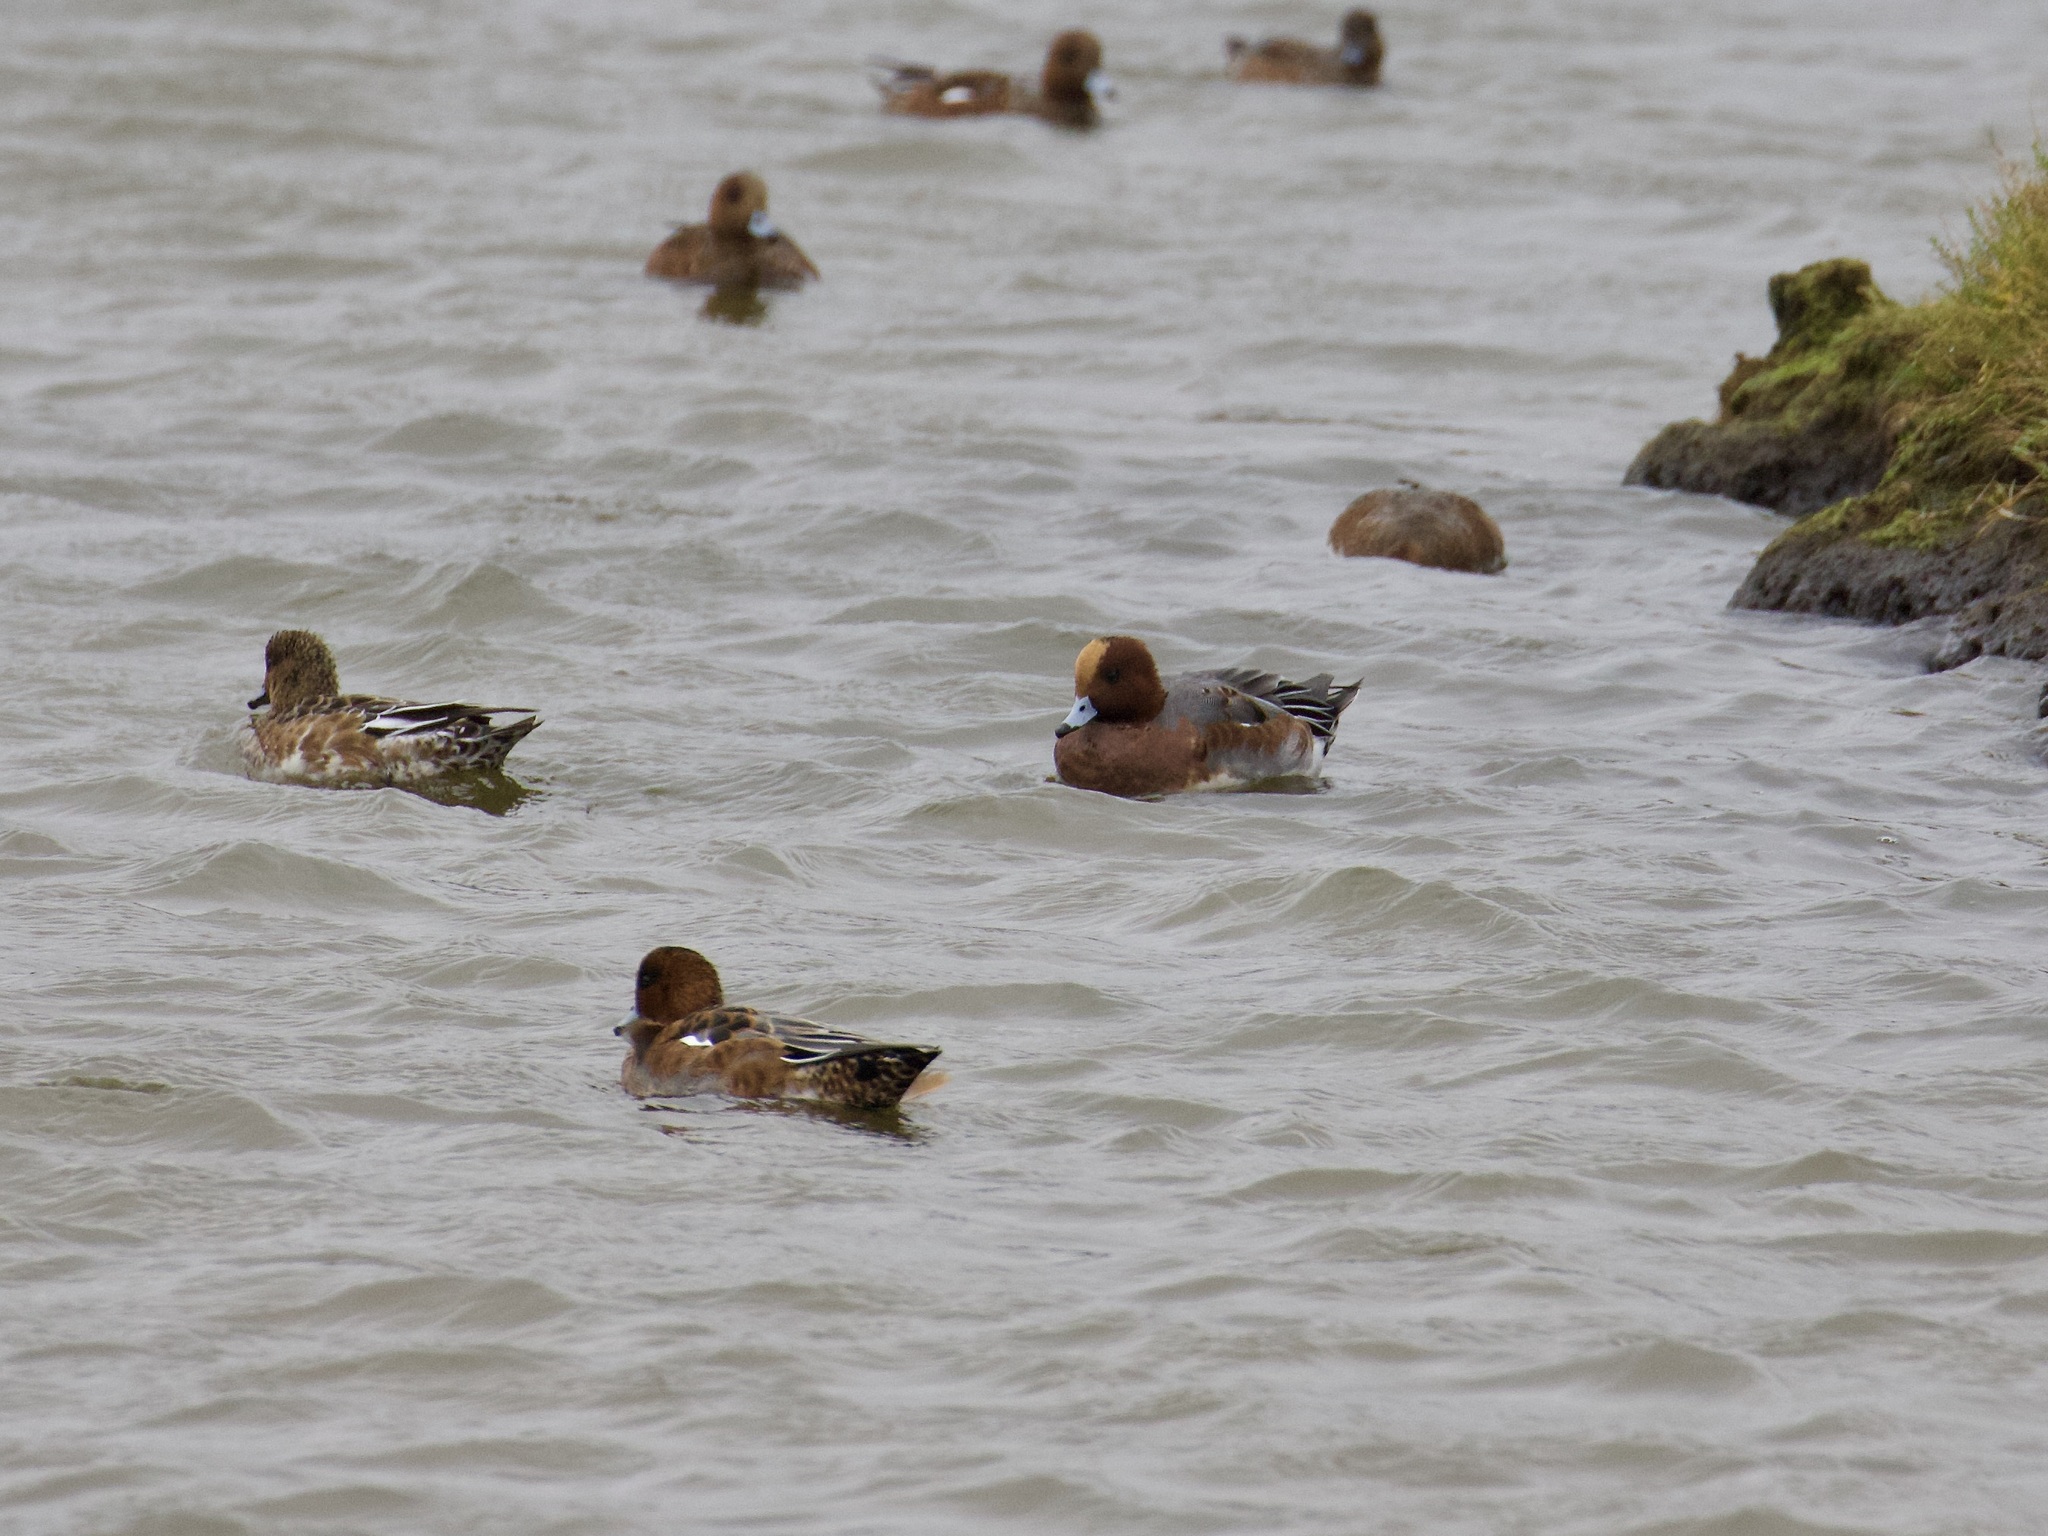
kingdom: Animalia
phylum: Chordata
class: Aves
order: Anseriformes
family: Anatidae
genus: Mareca
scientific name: Mareca penelope
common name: Eurasian wigeon
